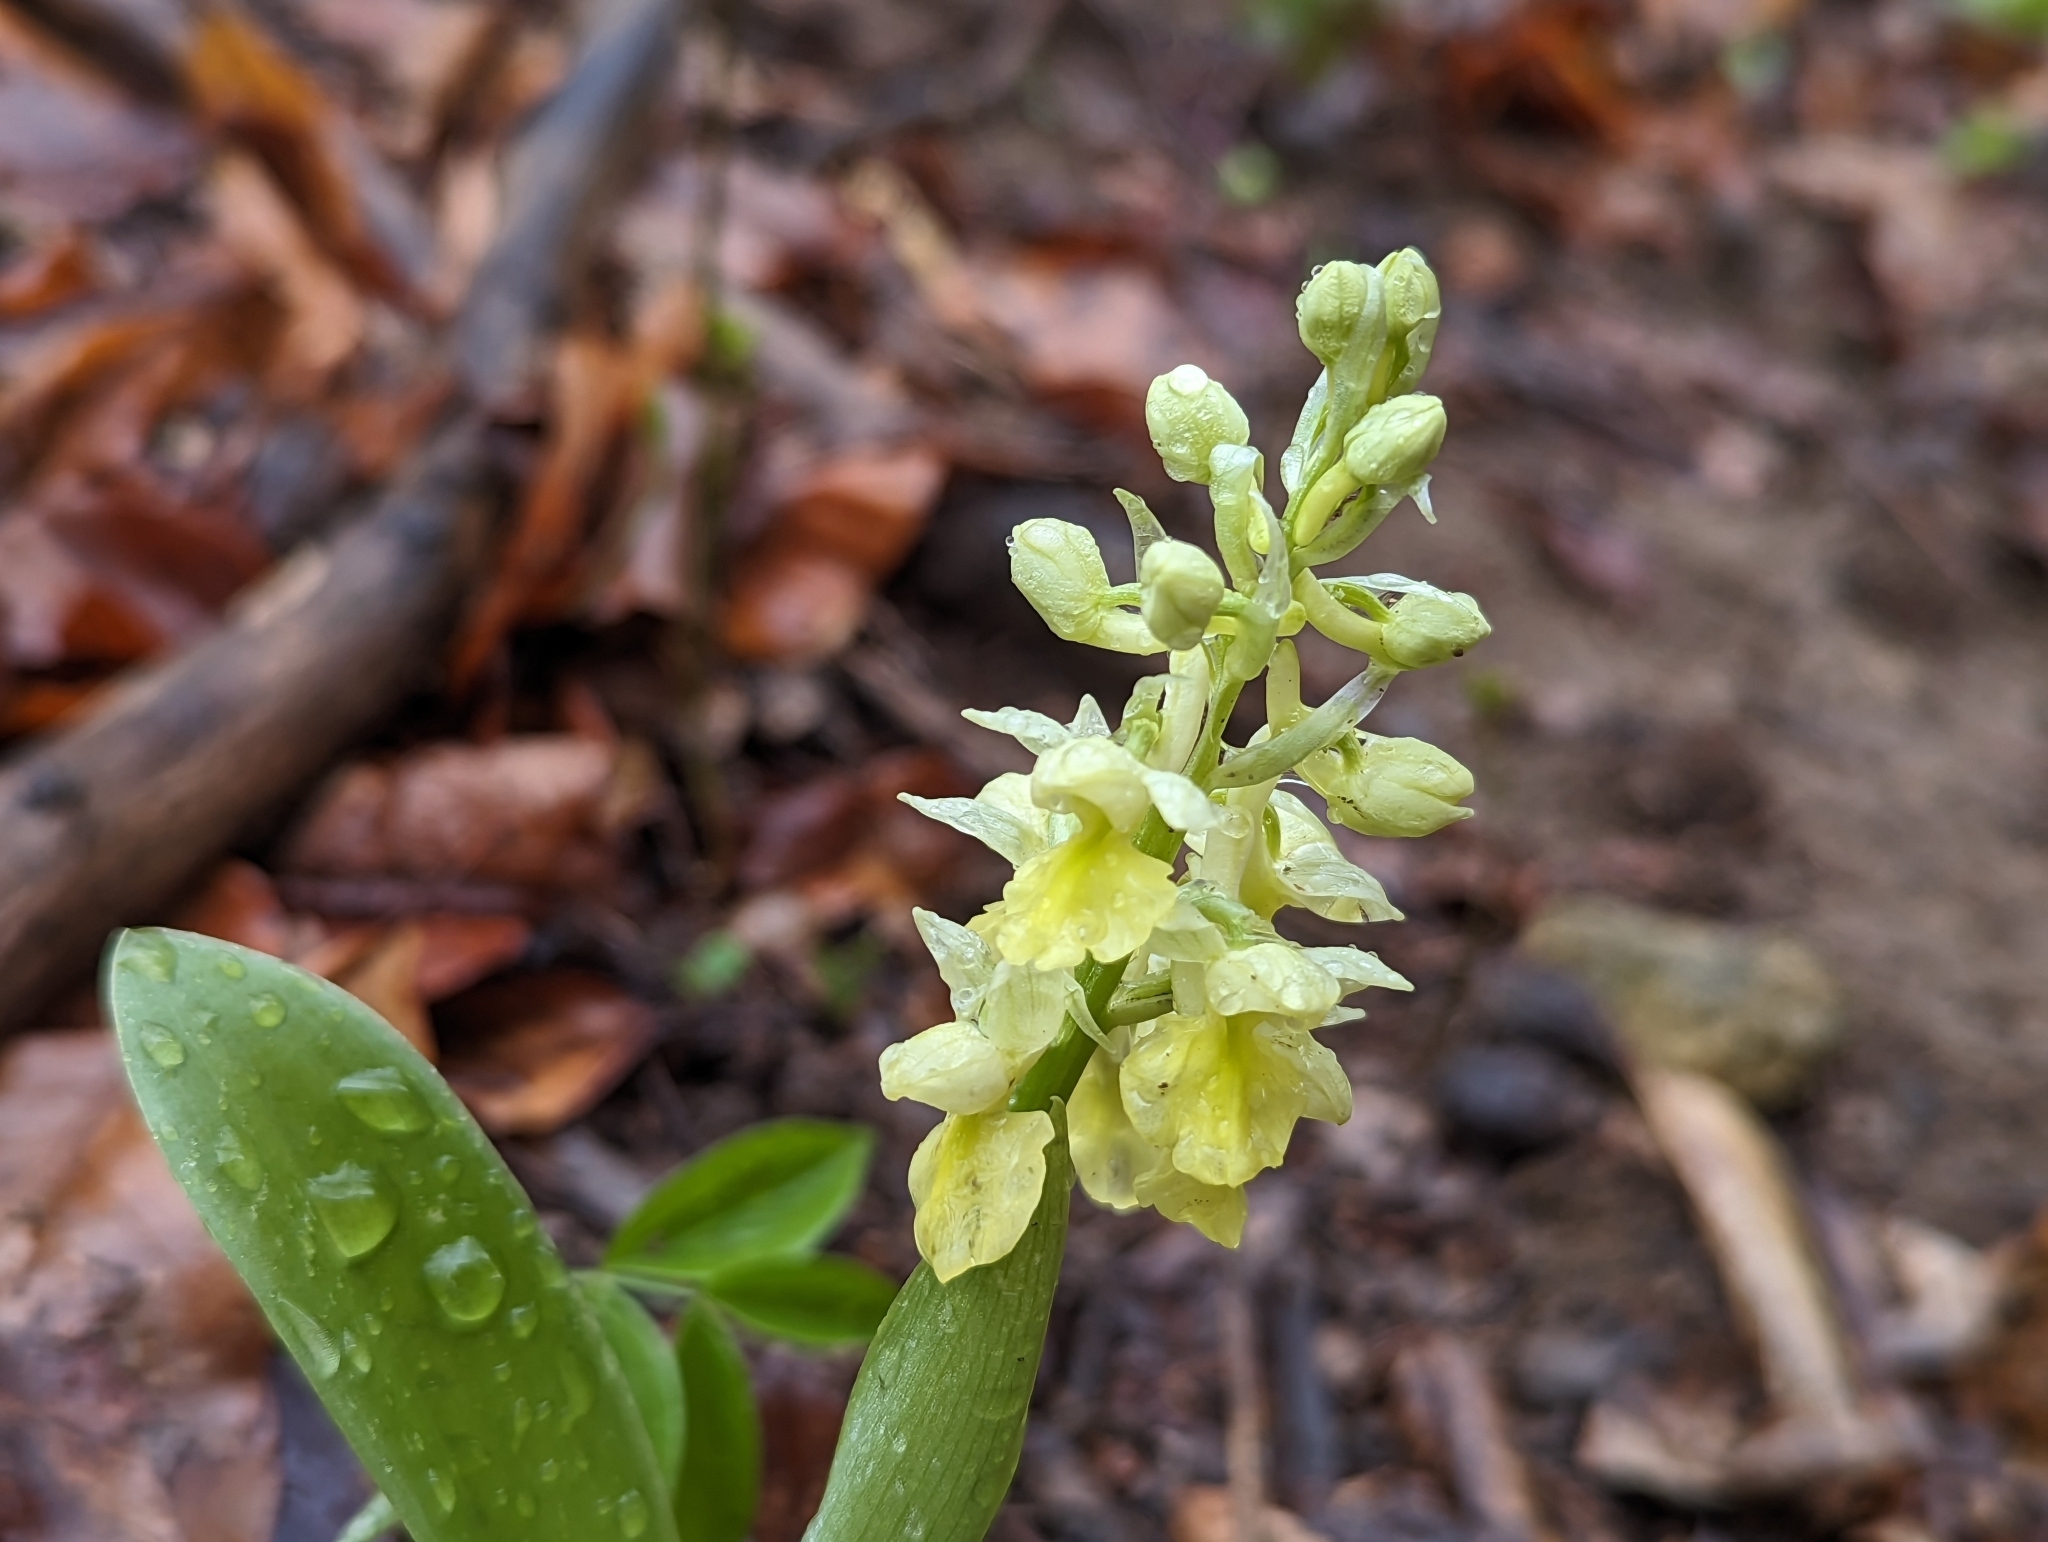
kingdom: Plantae
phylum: Tracheophyta
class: Liliopsida
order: Asparagales
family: Orchidaceae
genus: Orchis
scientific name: Orchis pallens
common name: Pale-flowered orchid
